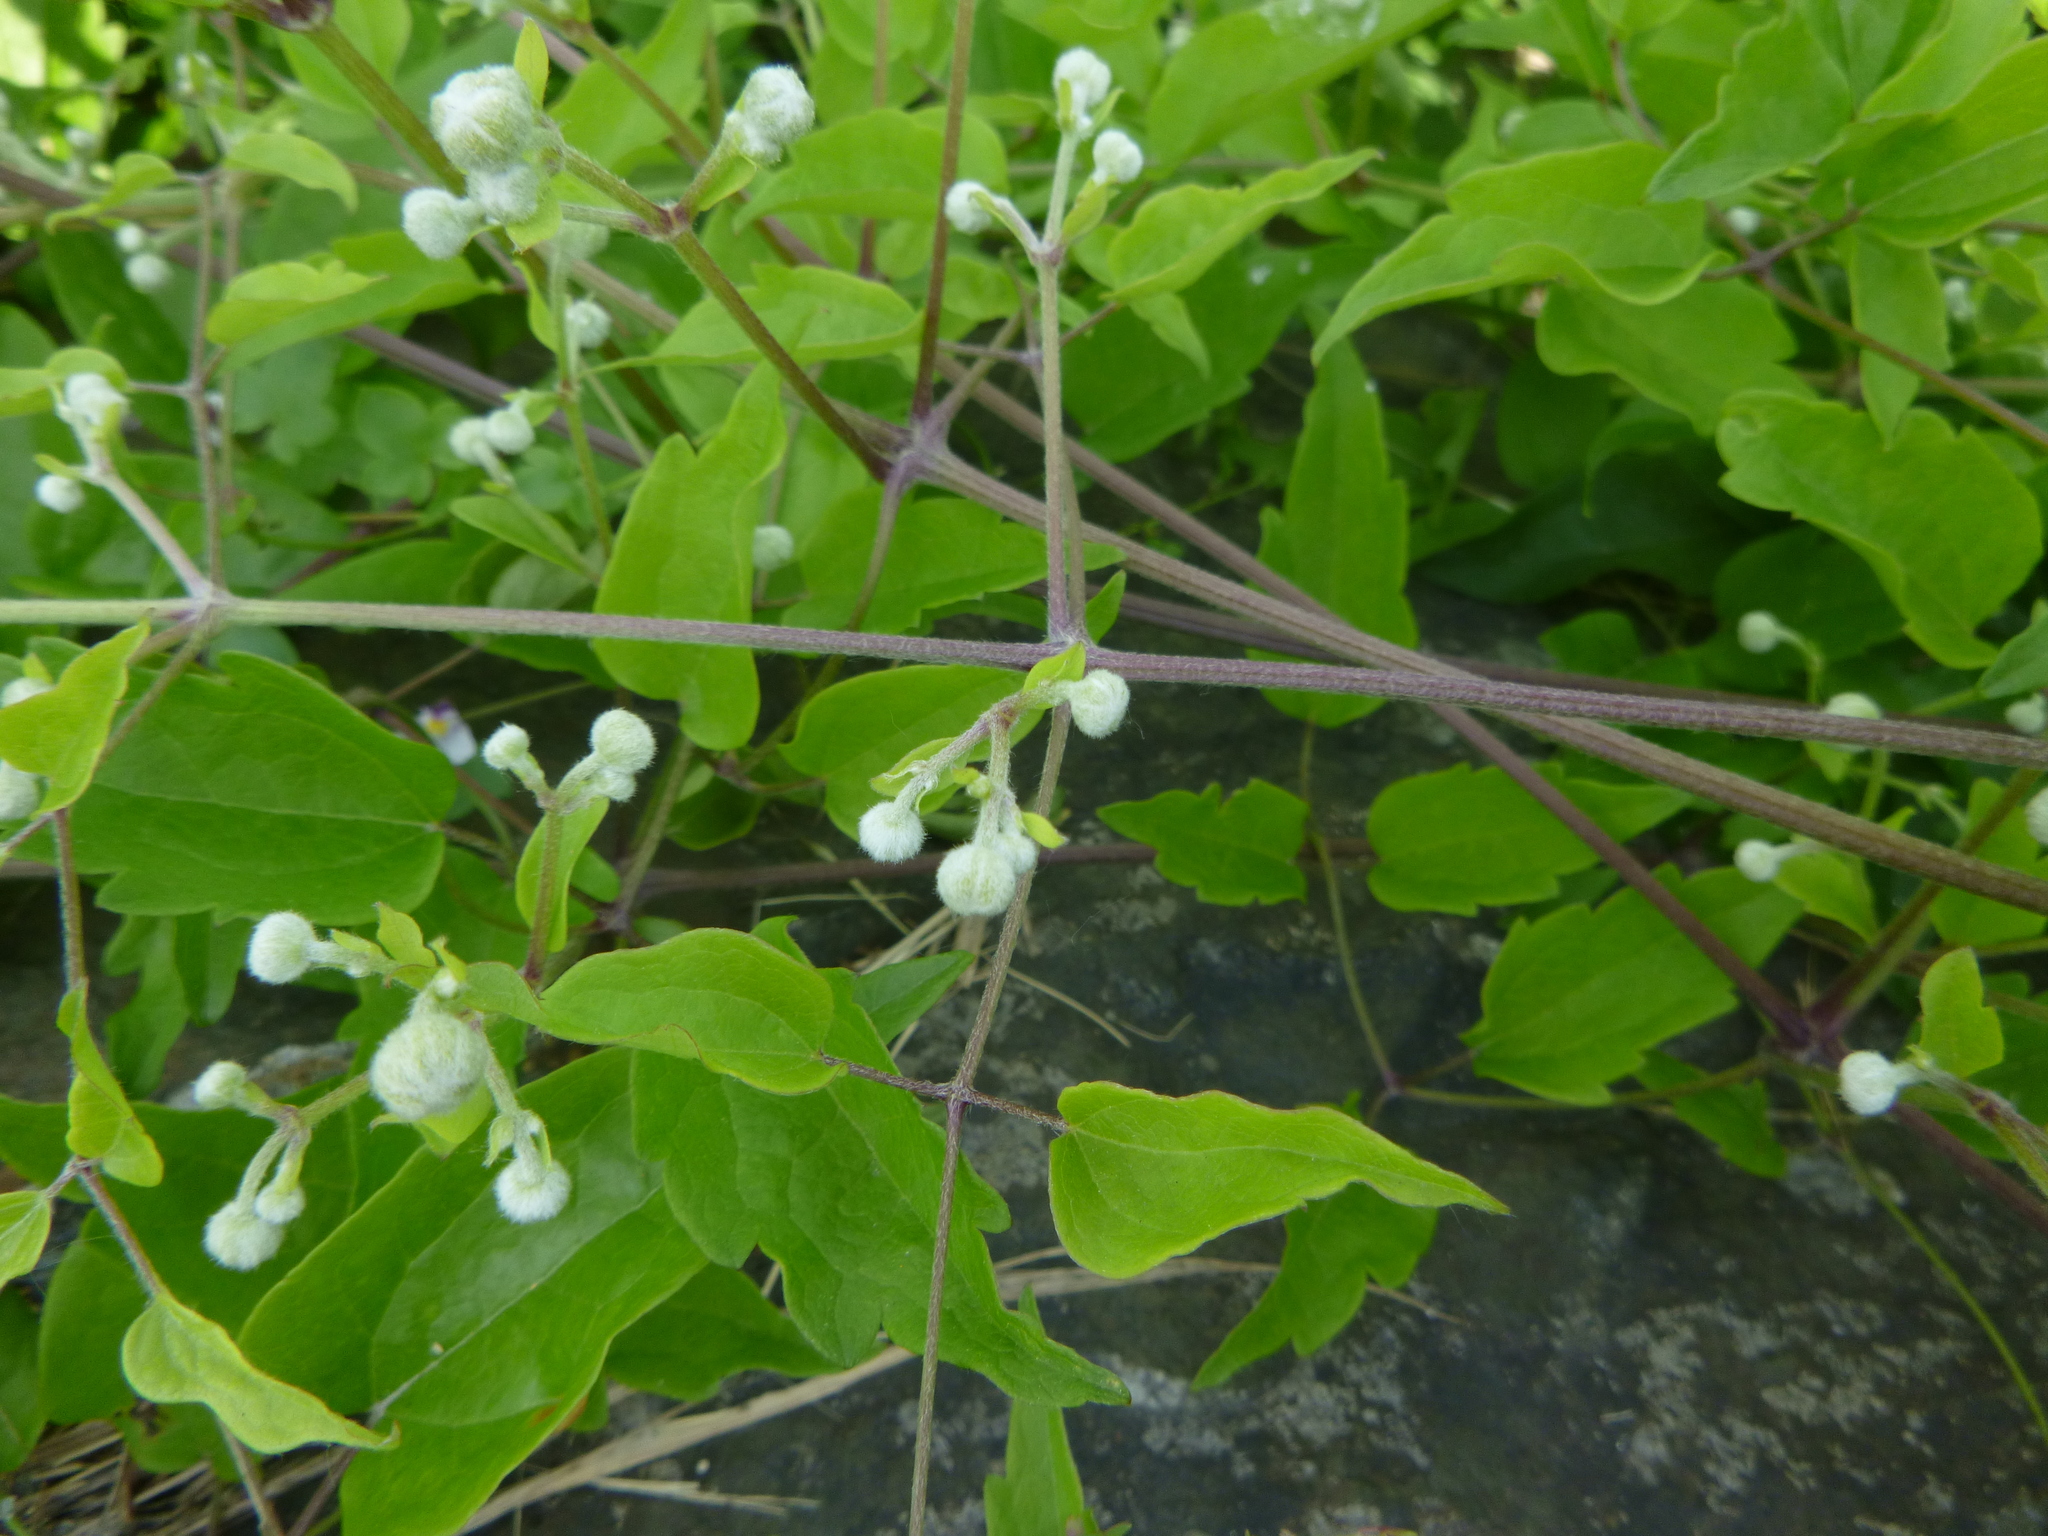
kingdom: Plantae
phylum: Tracheophyta
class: Magnoliopsida
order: Ranunculales
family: Ranunculaceae
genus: Clematis
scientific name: Clematis vitalba
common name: Evergreen clematis
